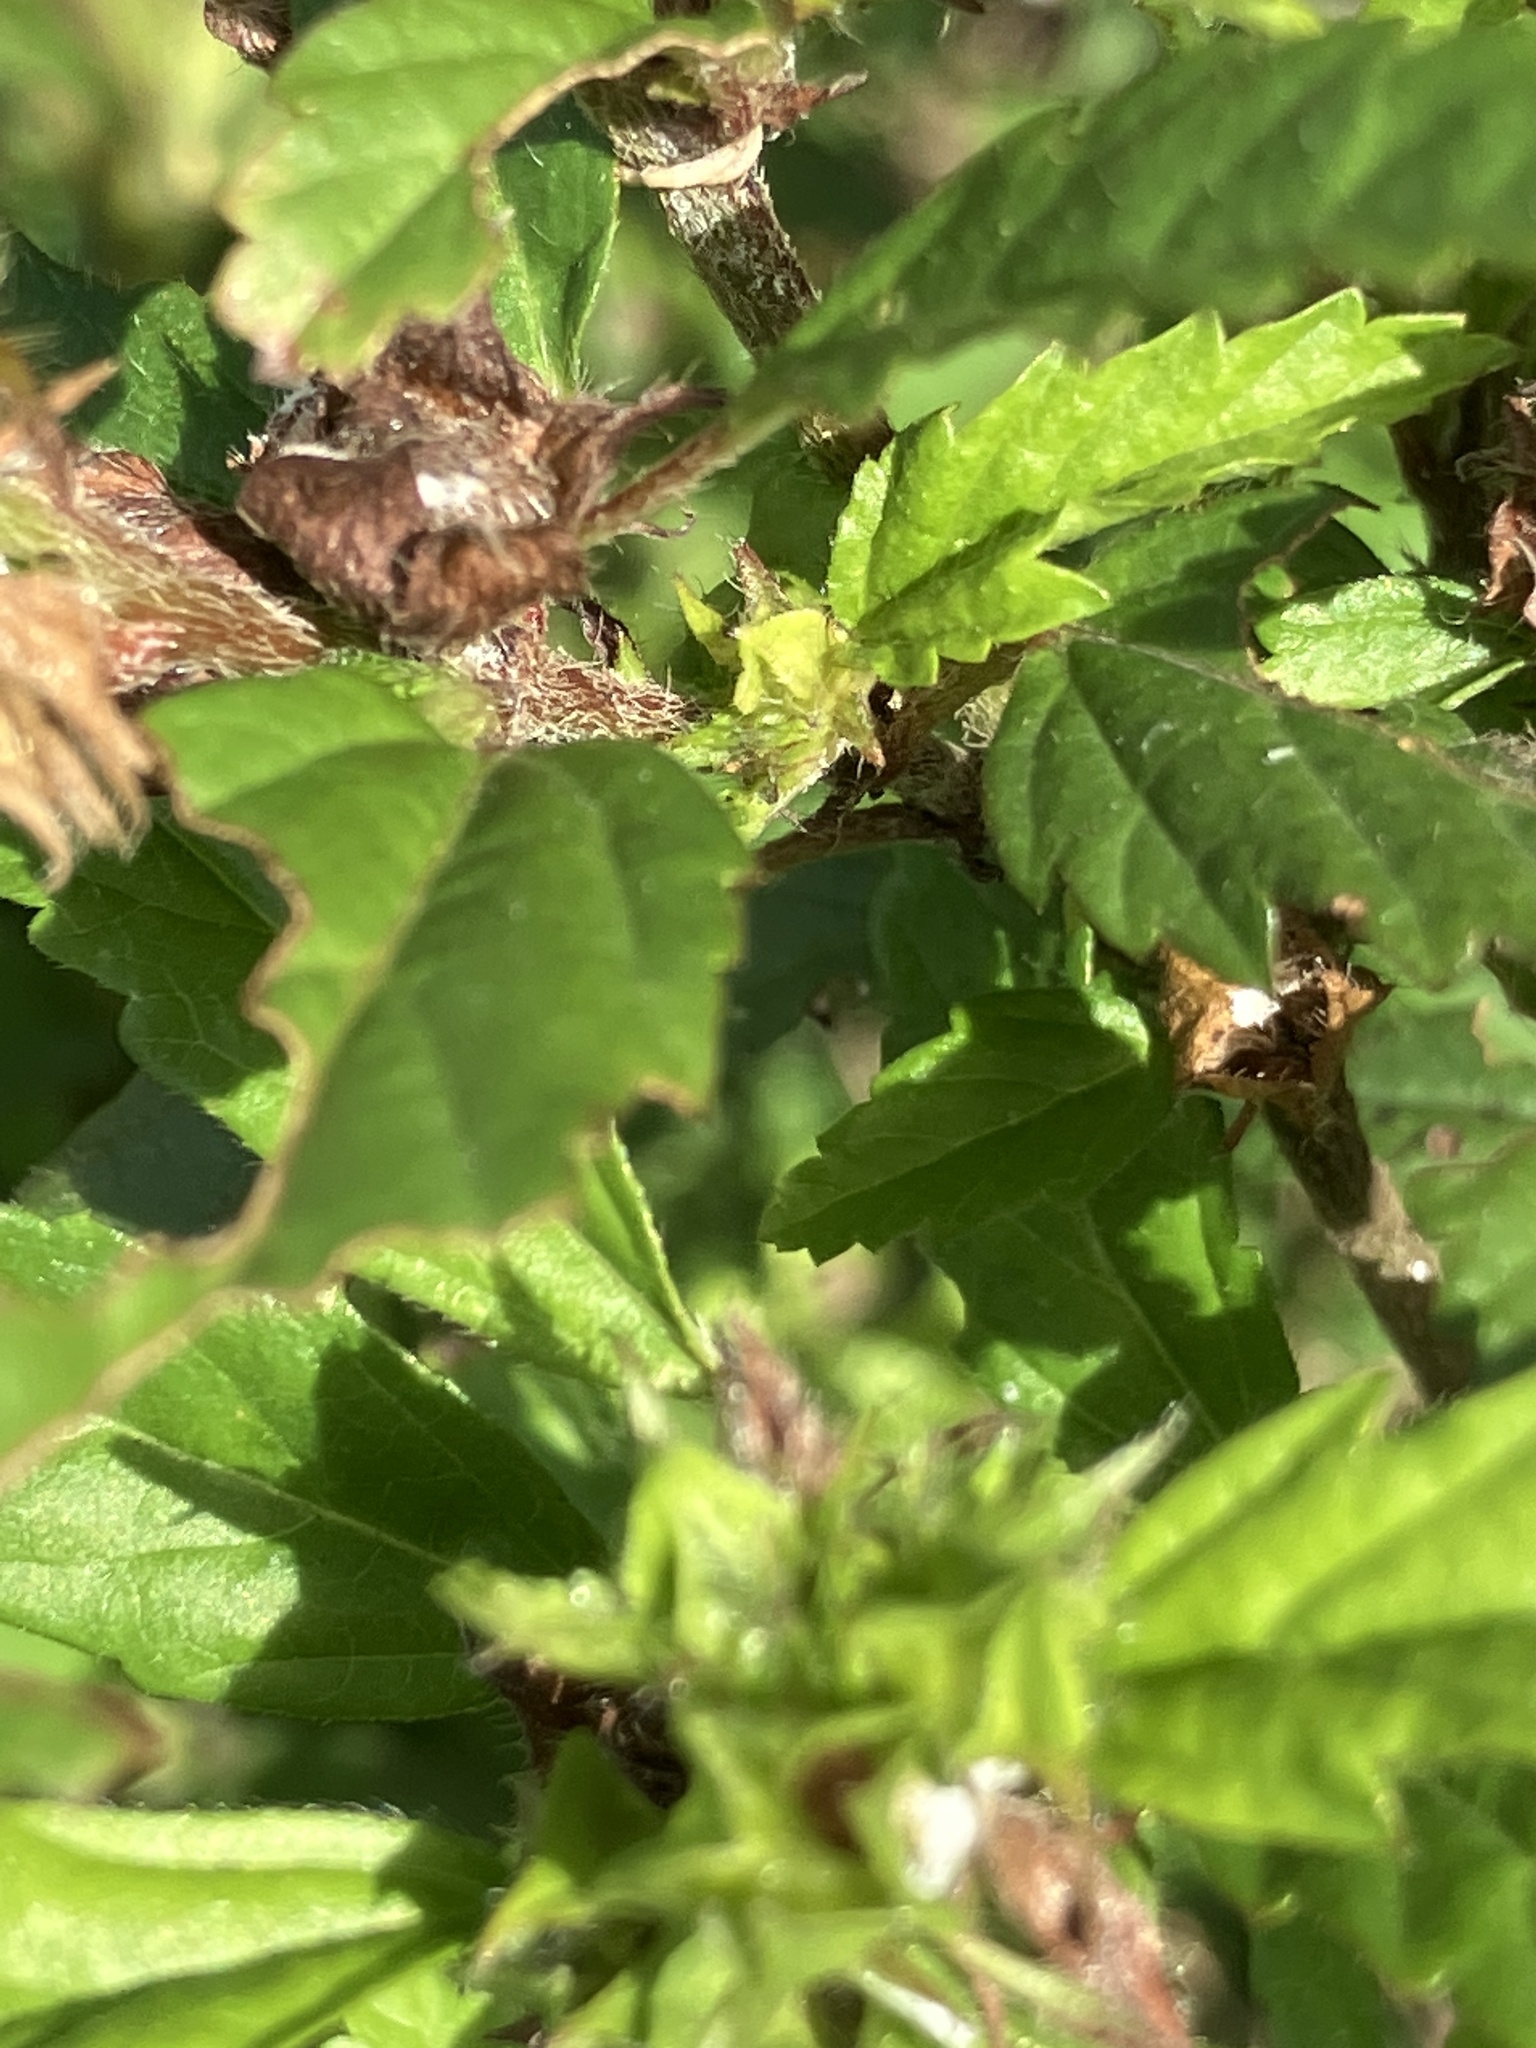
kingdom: Plantae
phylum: Tracheophyta
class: Magnoliopsida
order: Malvales
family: Malvaceae
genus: Malvastrum
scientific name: Malvastrum coromandelianum
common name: Threelobe false mallow
